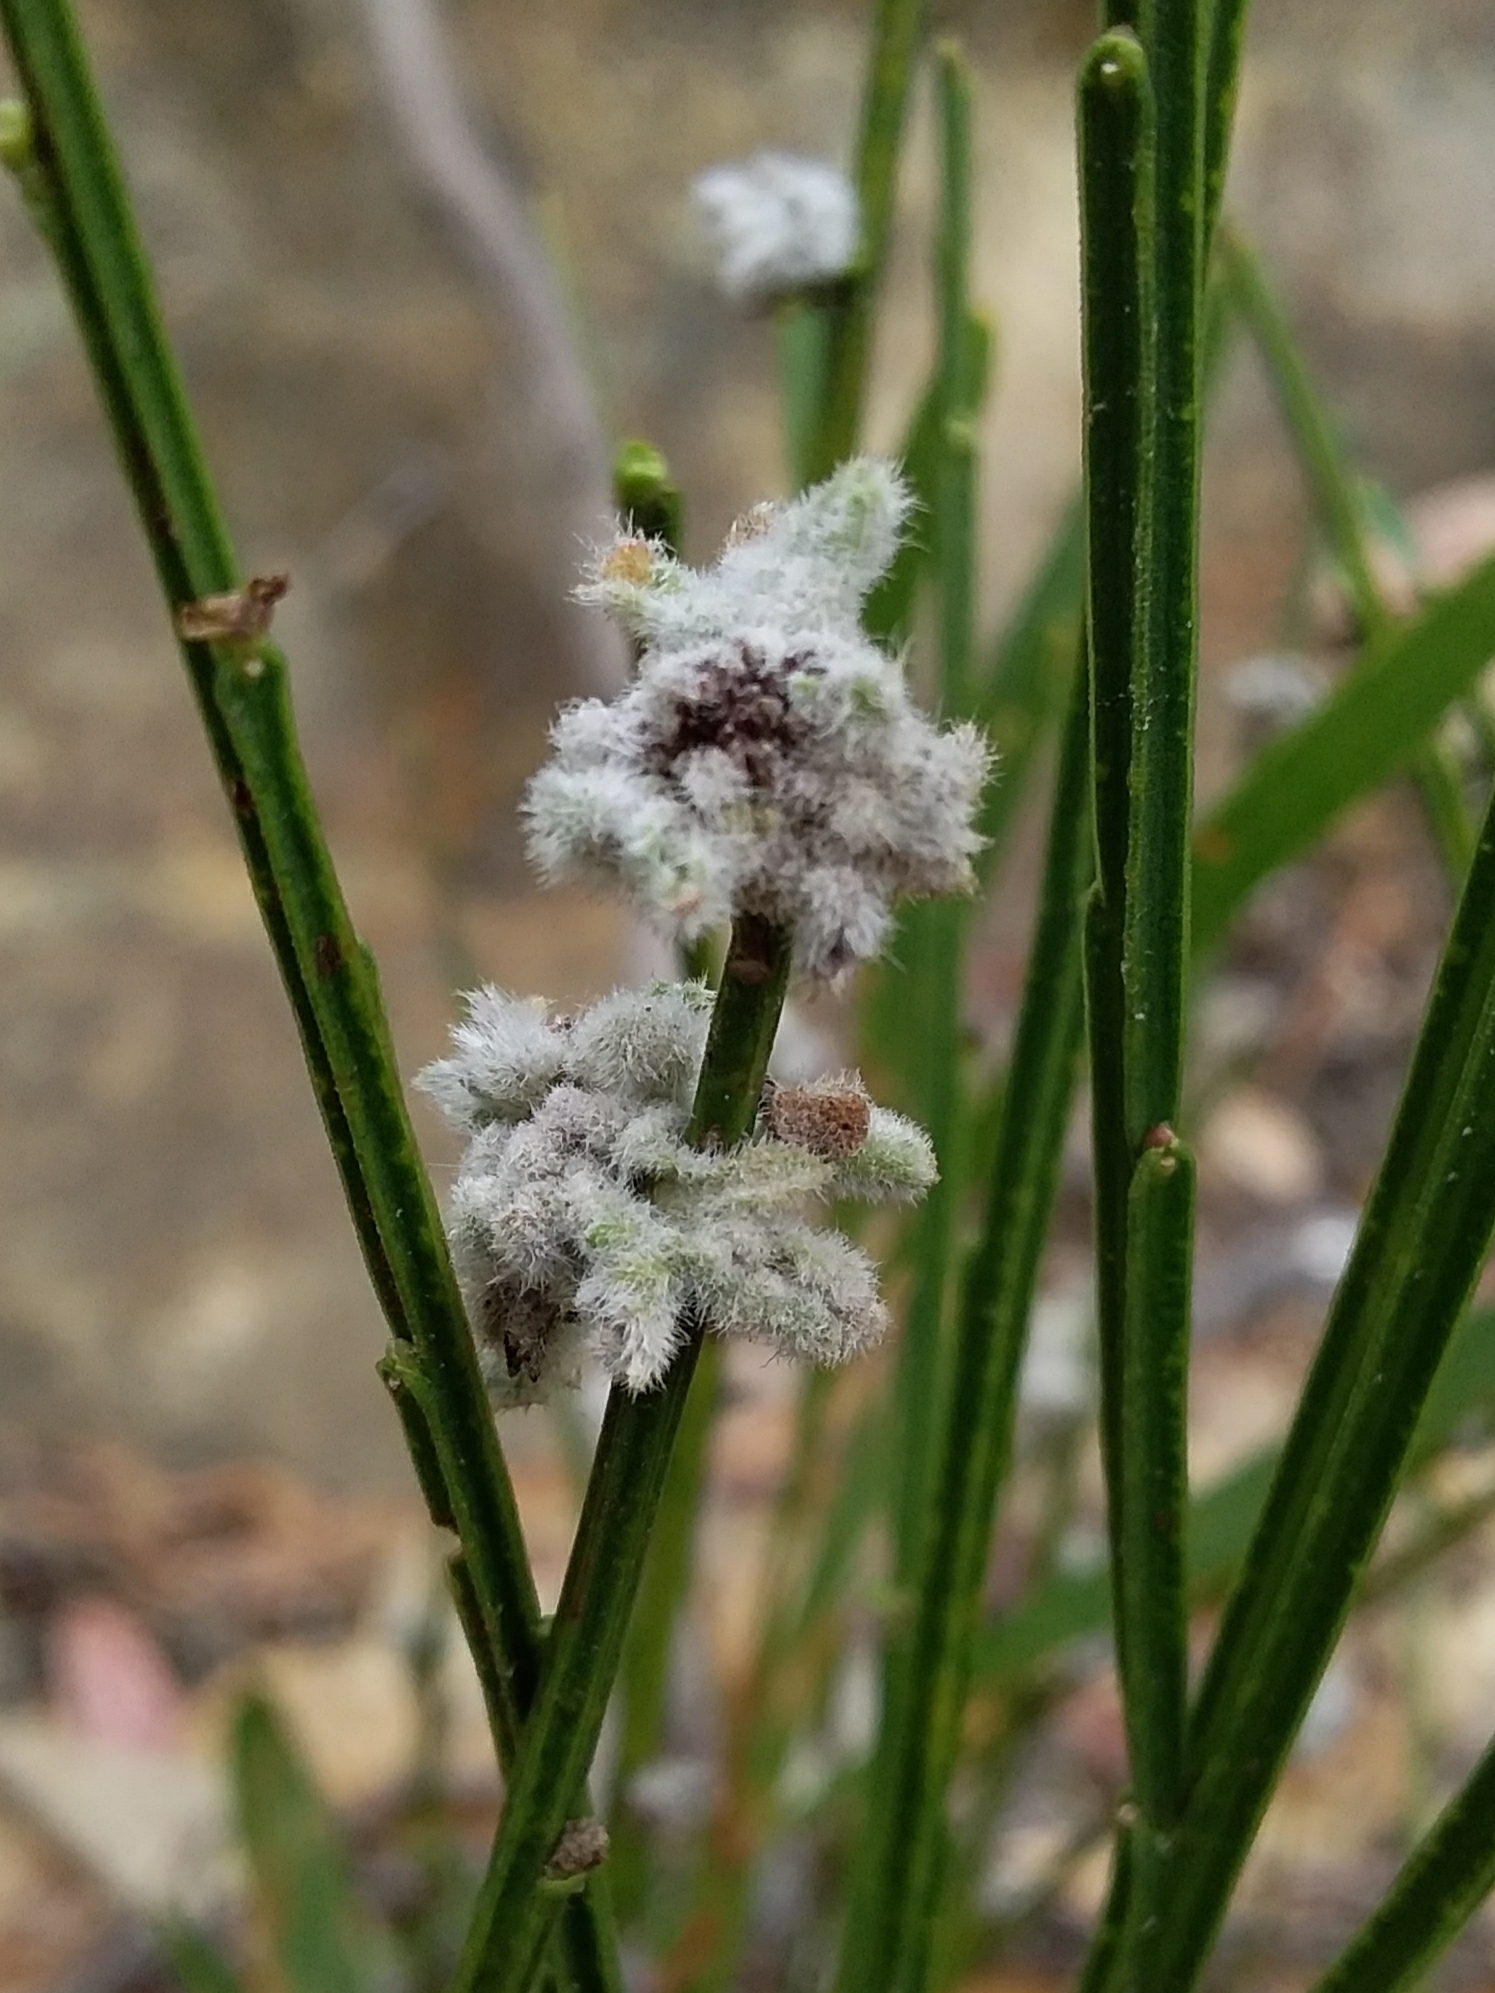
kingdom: Animalia
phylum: Arthropoda
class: Arachnida
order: Trombidiformes
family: Eriophyidae
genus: Aceria
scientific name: Aceria genistae
